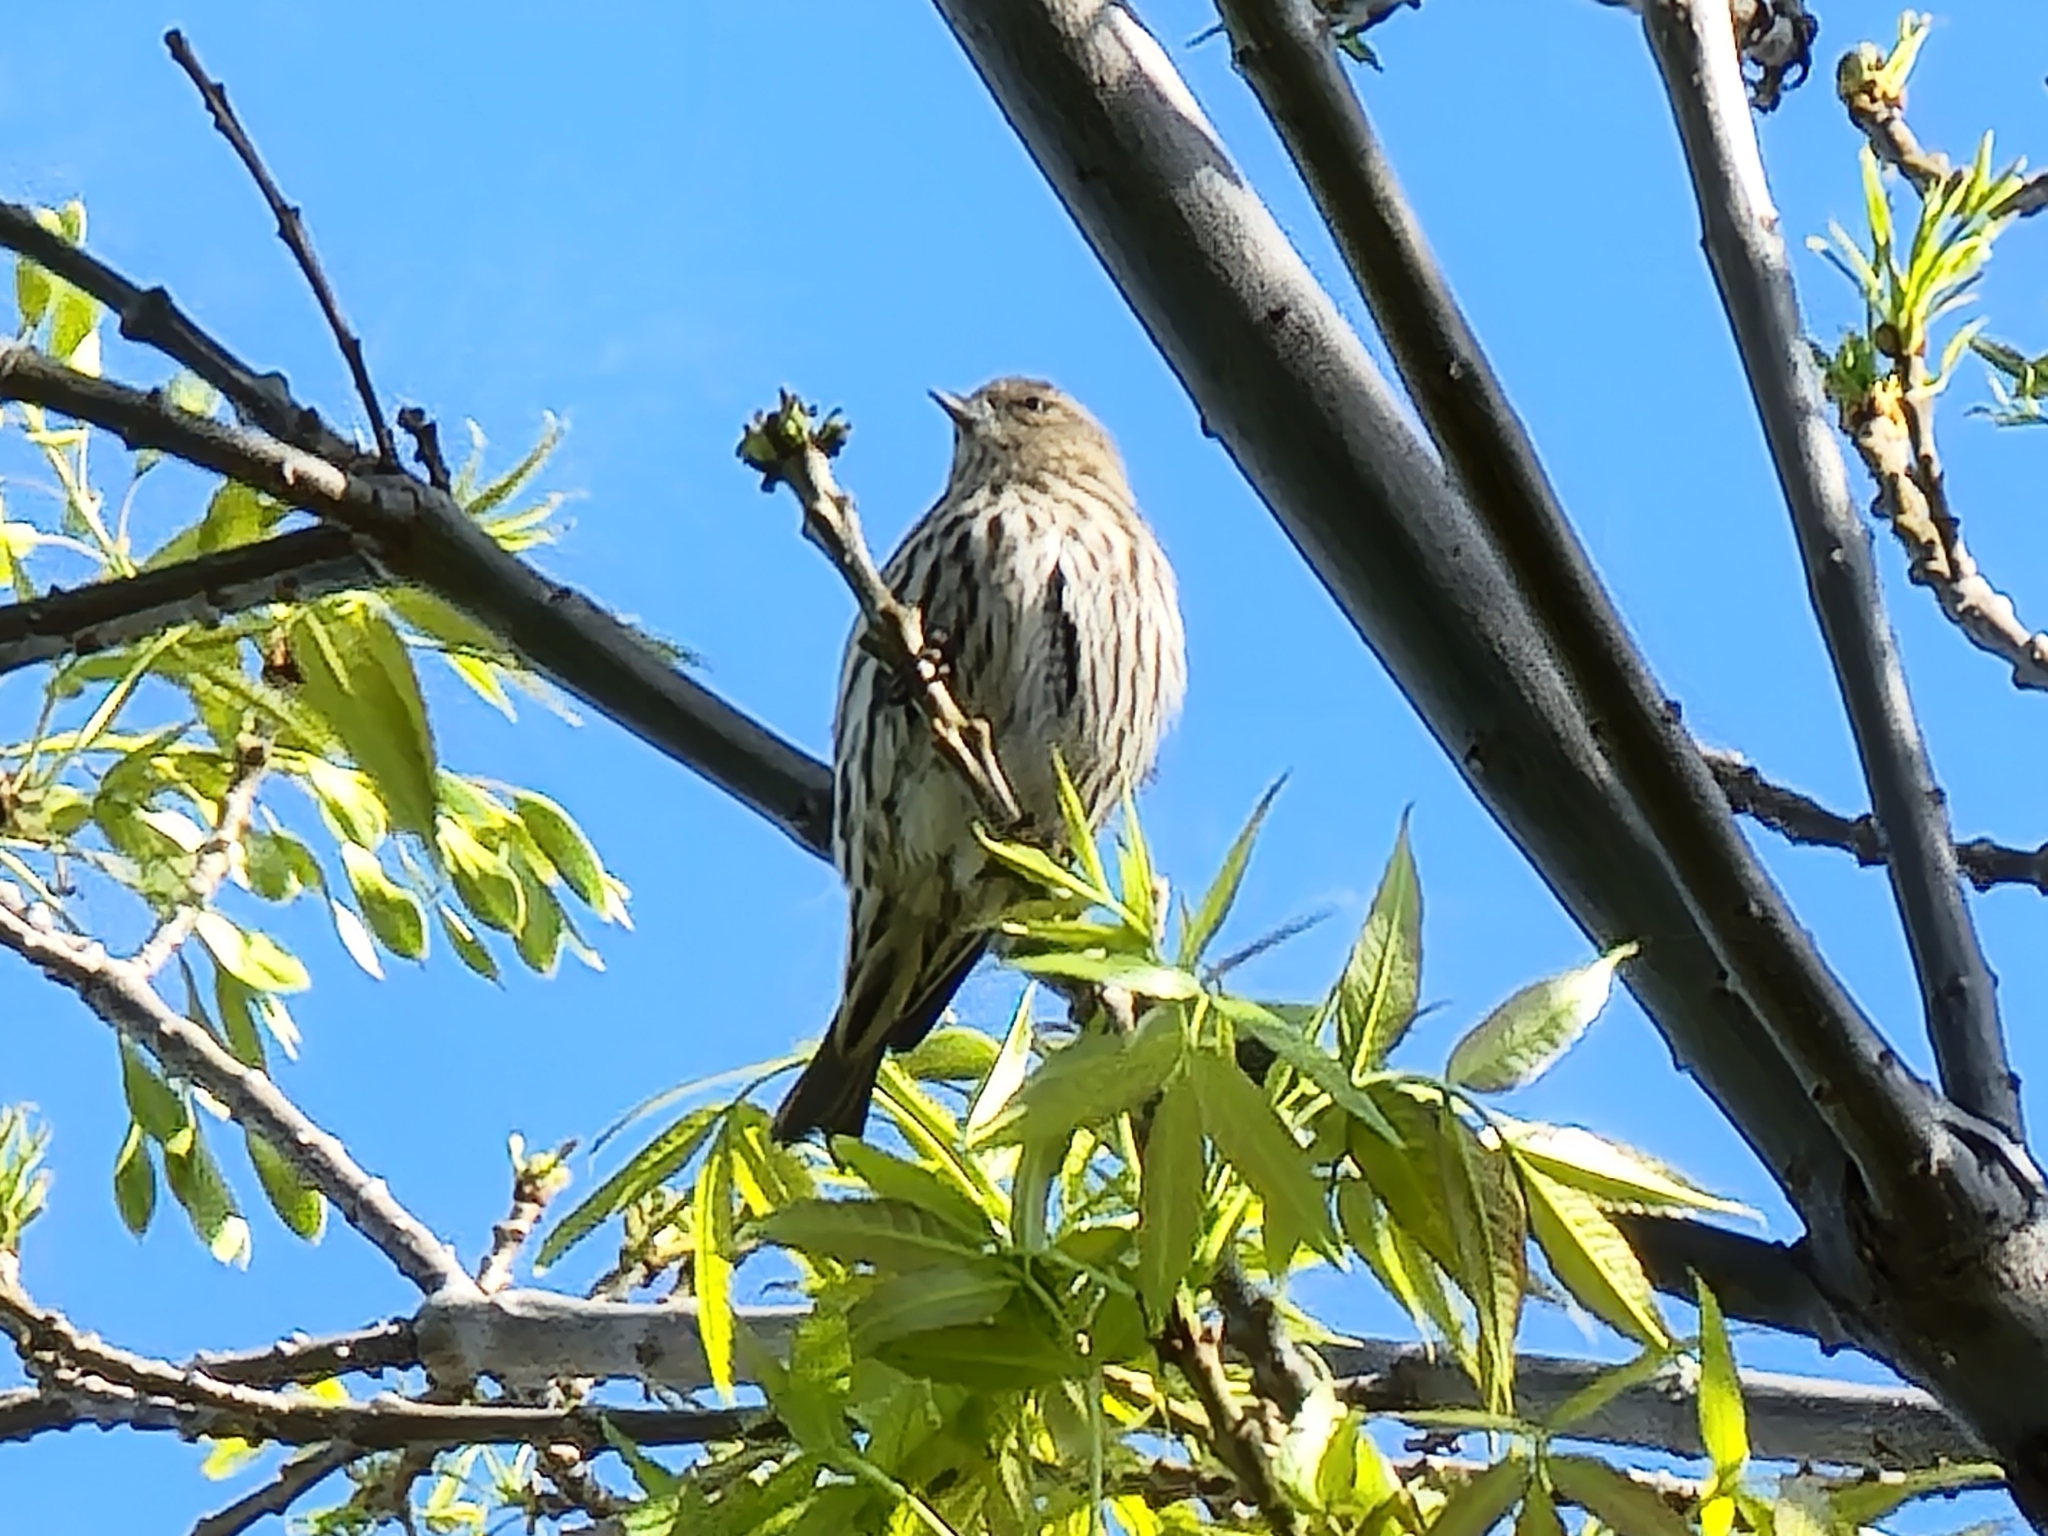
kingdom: Animalia
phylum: Chordata
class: Aves
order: Passeriformes
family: Fringillidae
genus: Spinus
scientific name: Spinus pinus
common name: Pine siskin
